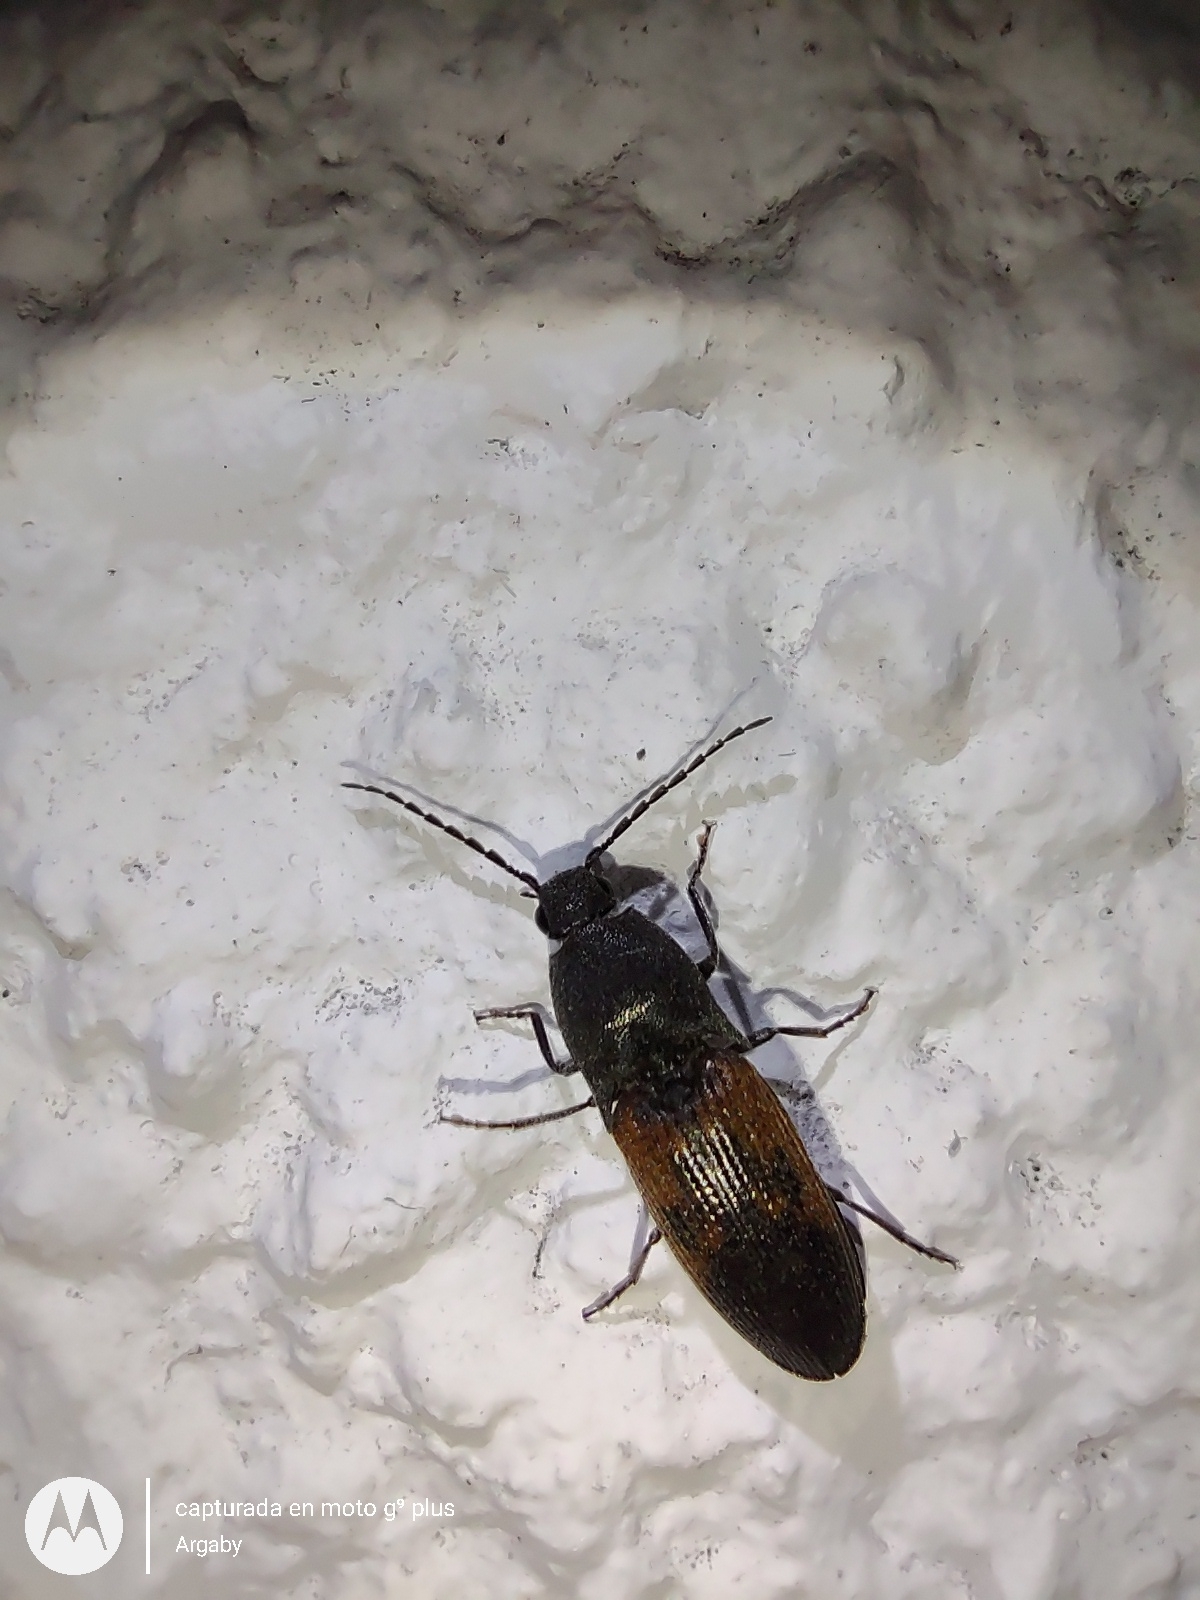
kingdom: Animalia
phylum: Arthropoda
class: Insecta
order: Coleoptera
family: Elateridae
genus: Monocrepidius
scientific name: Monocrepidius
